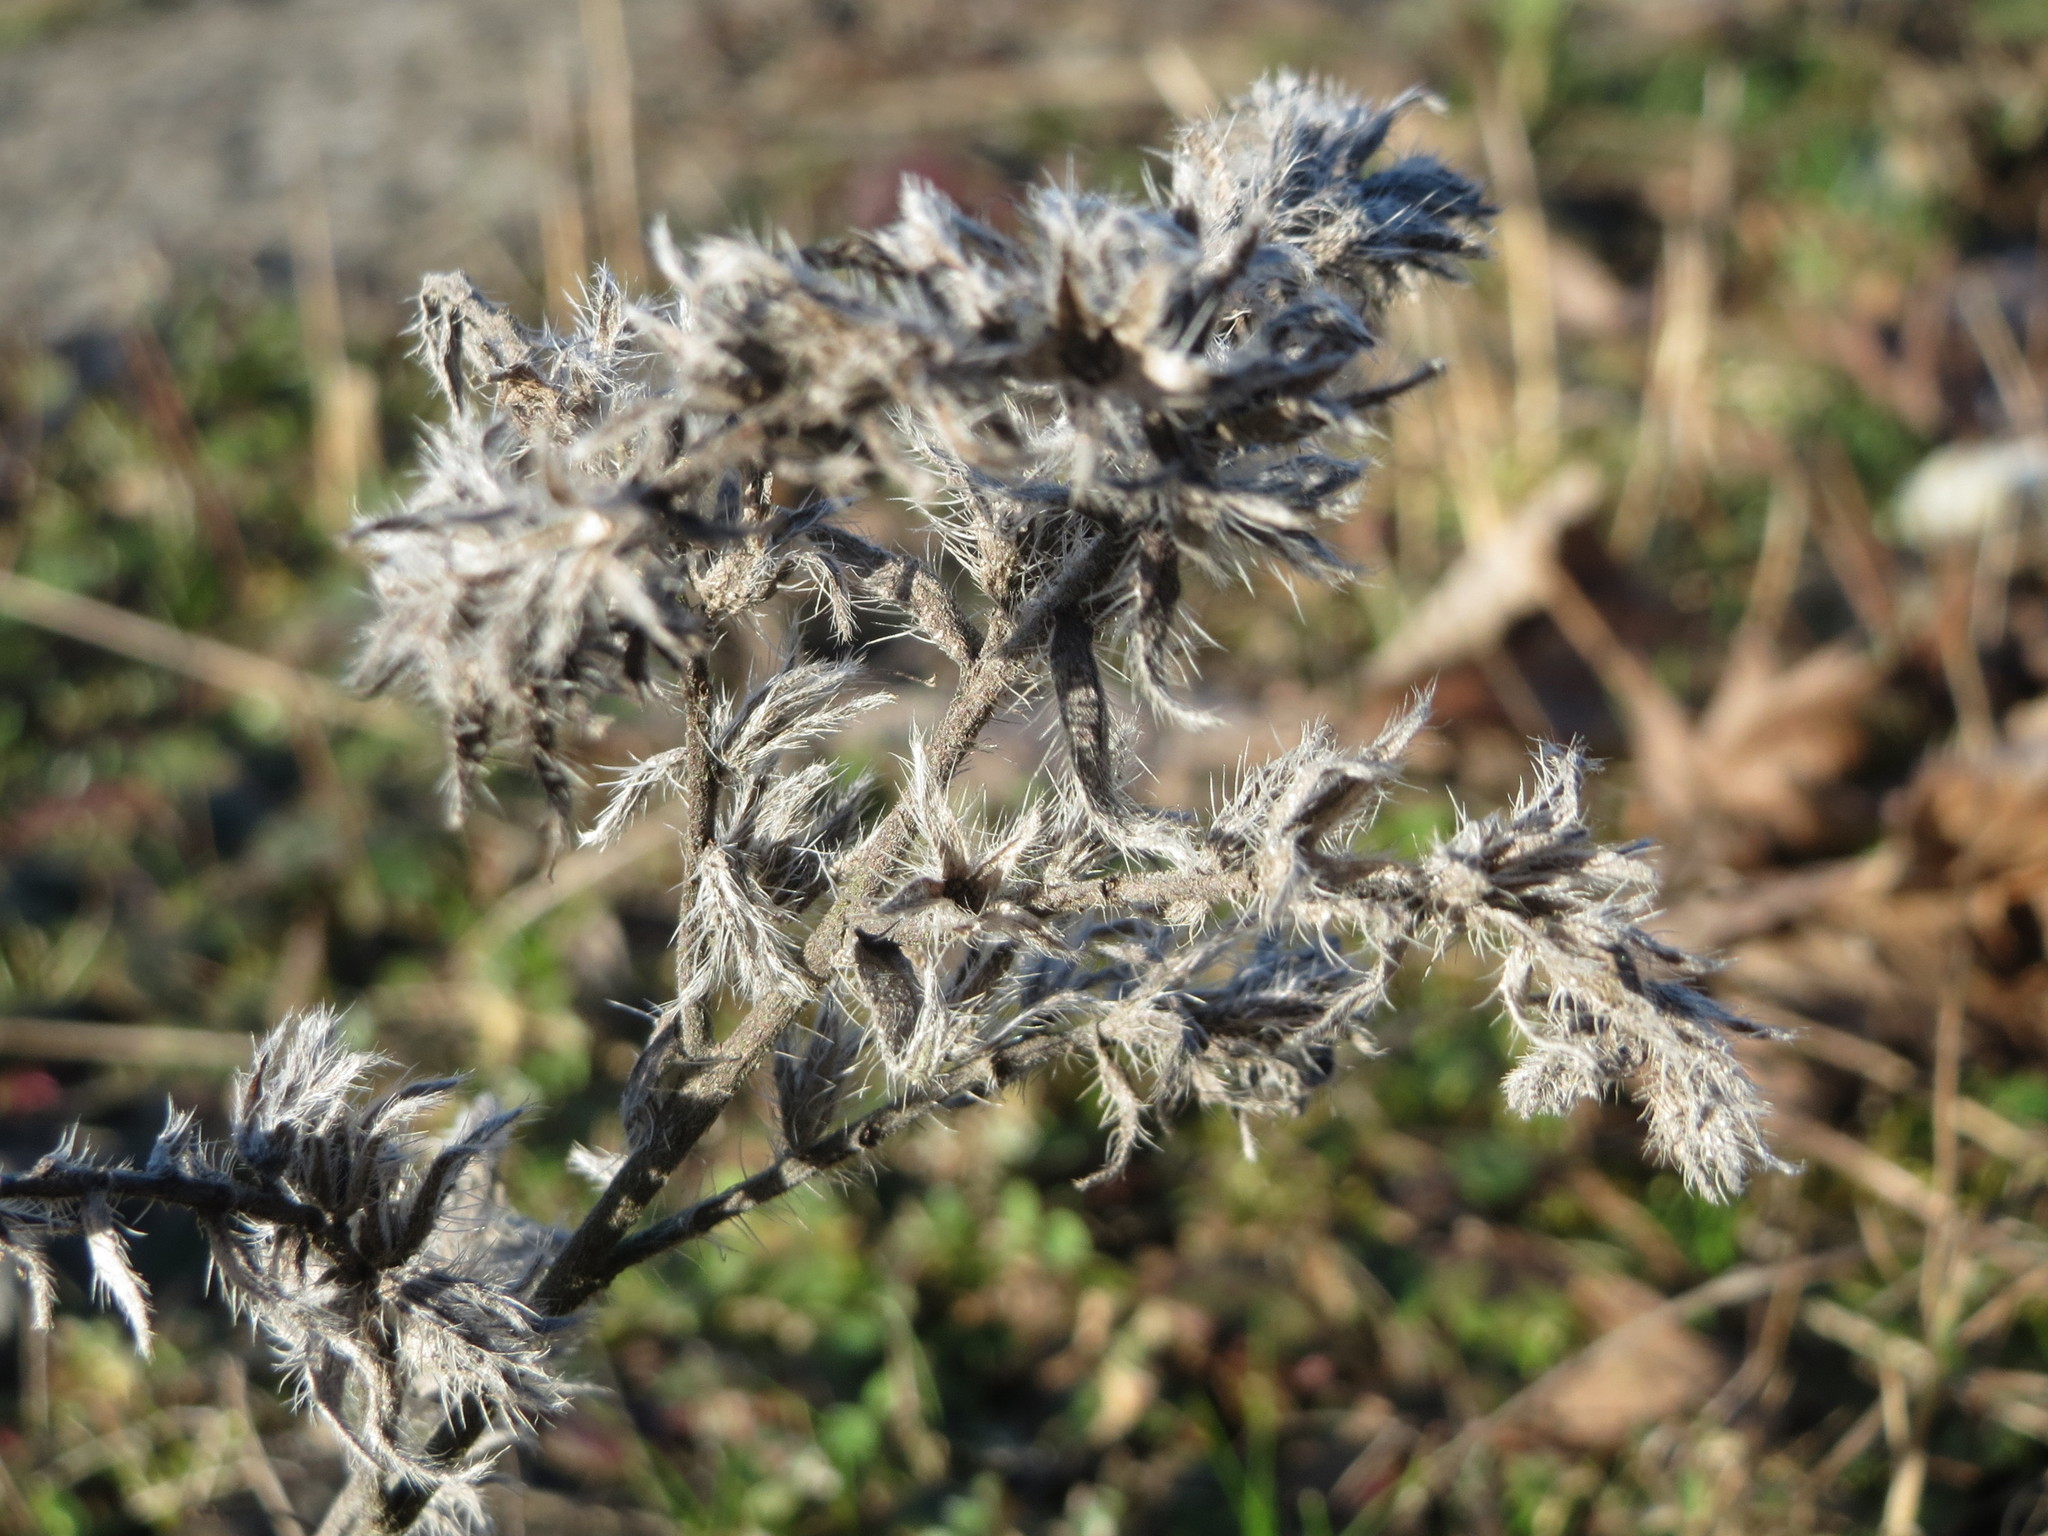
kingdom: Plantae
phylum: Tracheophyta
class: Magnoliopsida
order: Boraginales
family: Boraginaceae
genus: Echium
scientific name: Echium vulgare
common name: Common viper's bugloss
